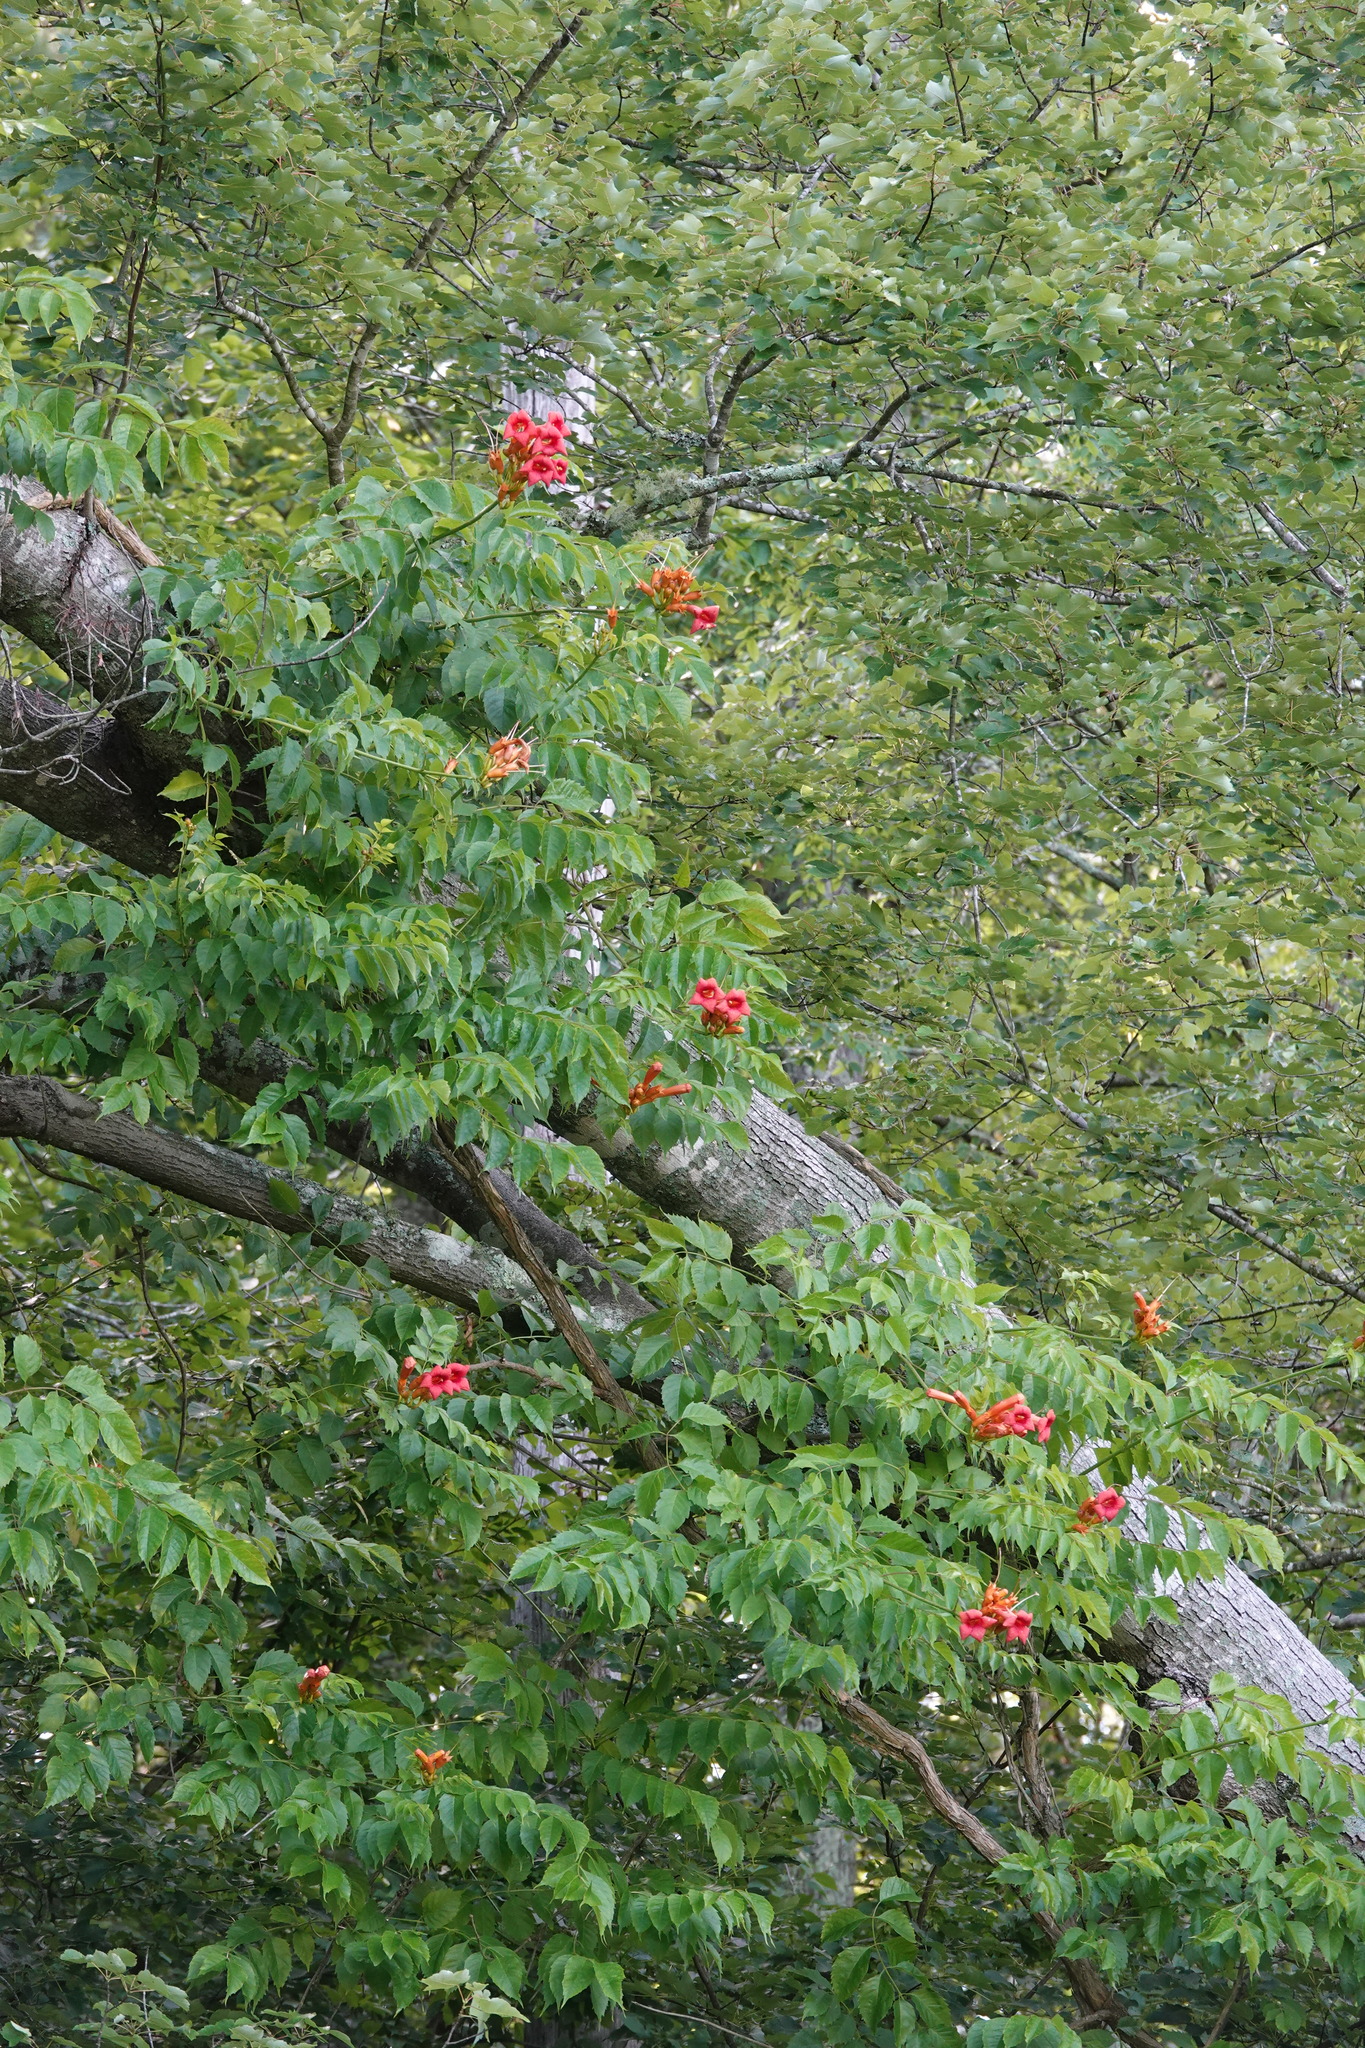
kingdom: Plantae
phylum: Tracheophyta
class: Magnoliopsida
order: Lamiales
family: Bignoniaceae
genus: Campsis
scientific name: Campsis radicans
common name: Trumpet-creeper
